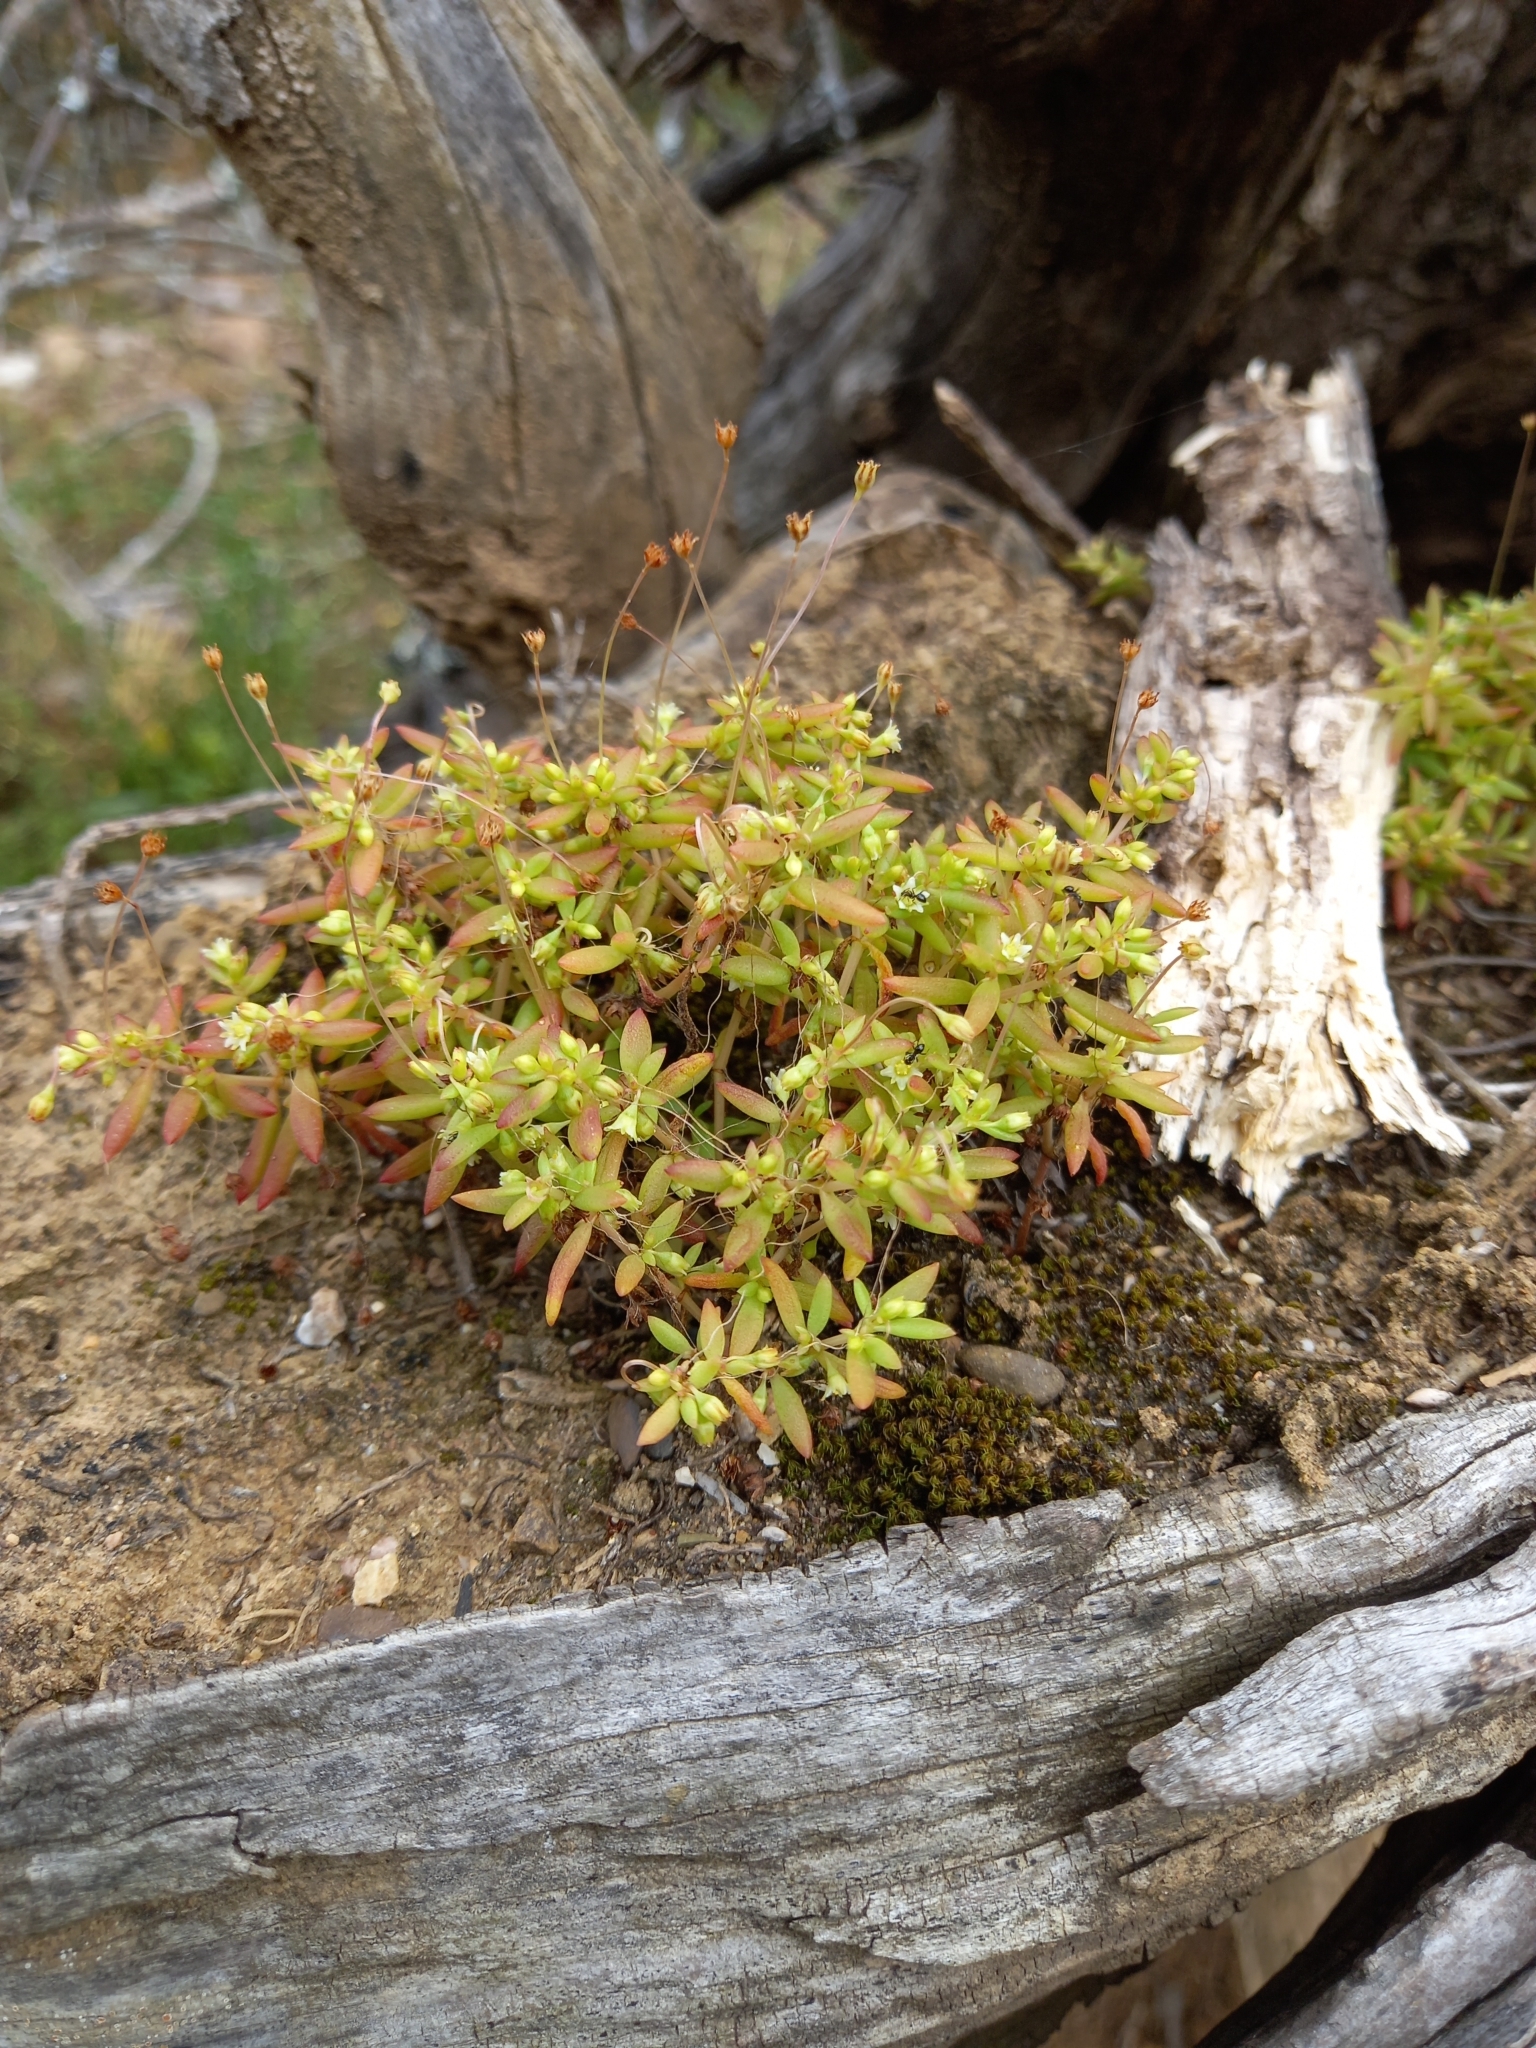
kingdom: Plantae
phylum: Tracheophyta
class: Magnoliopsida
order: Saxifragales
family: Crassulaceae
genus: Crassula
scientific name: Crassula expansa
